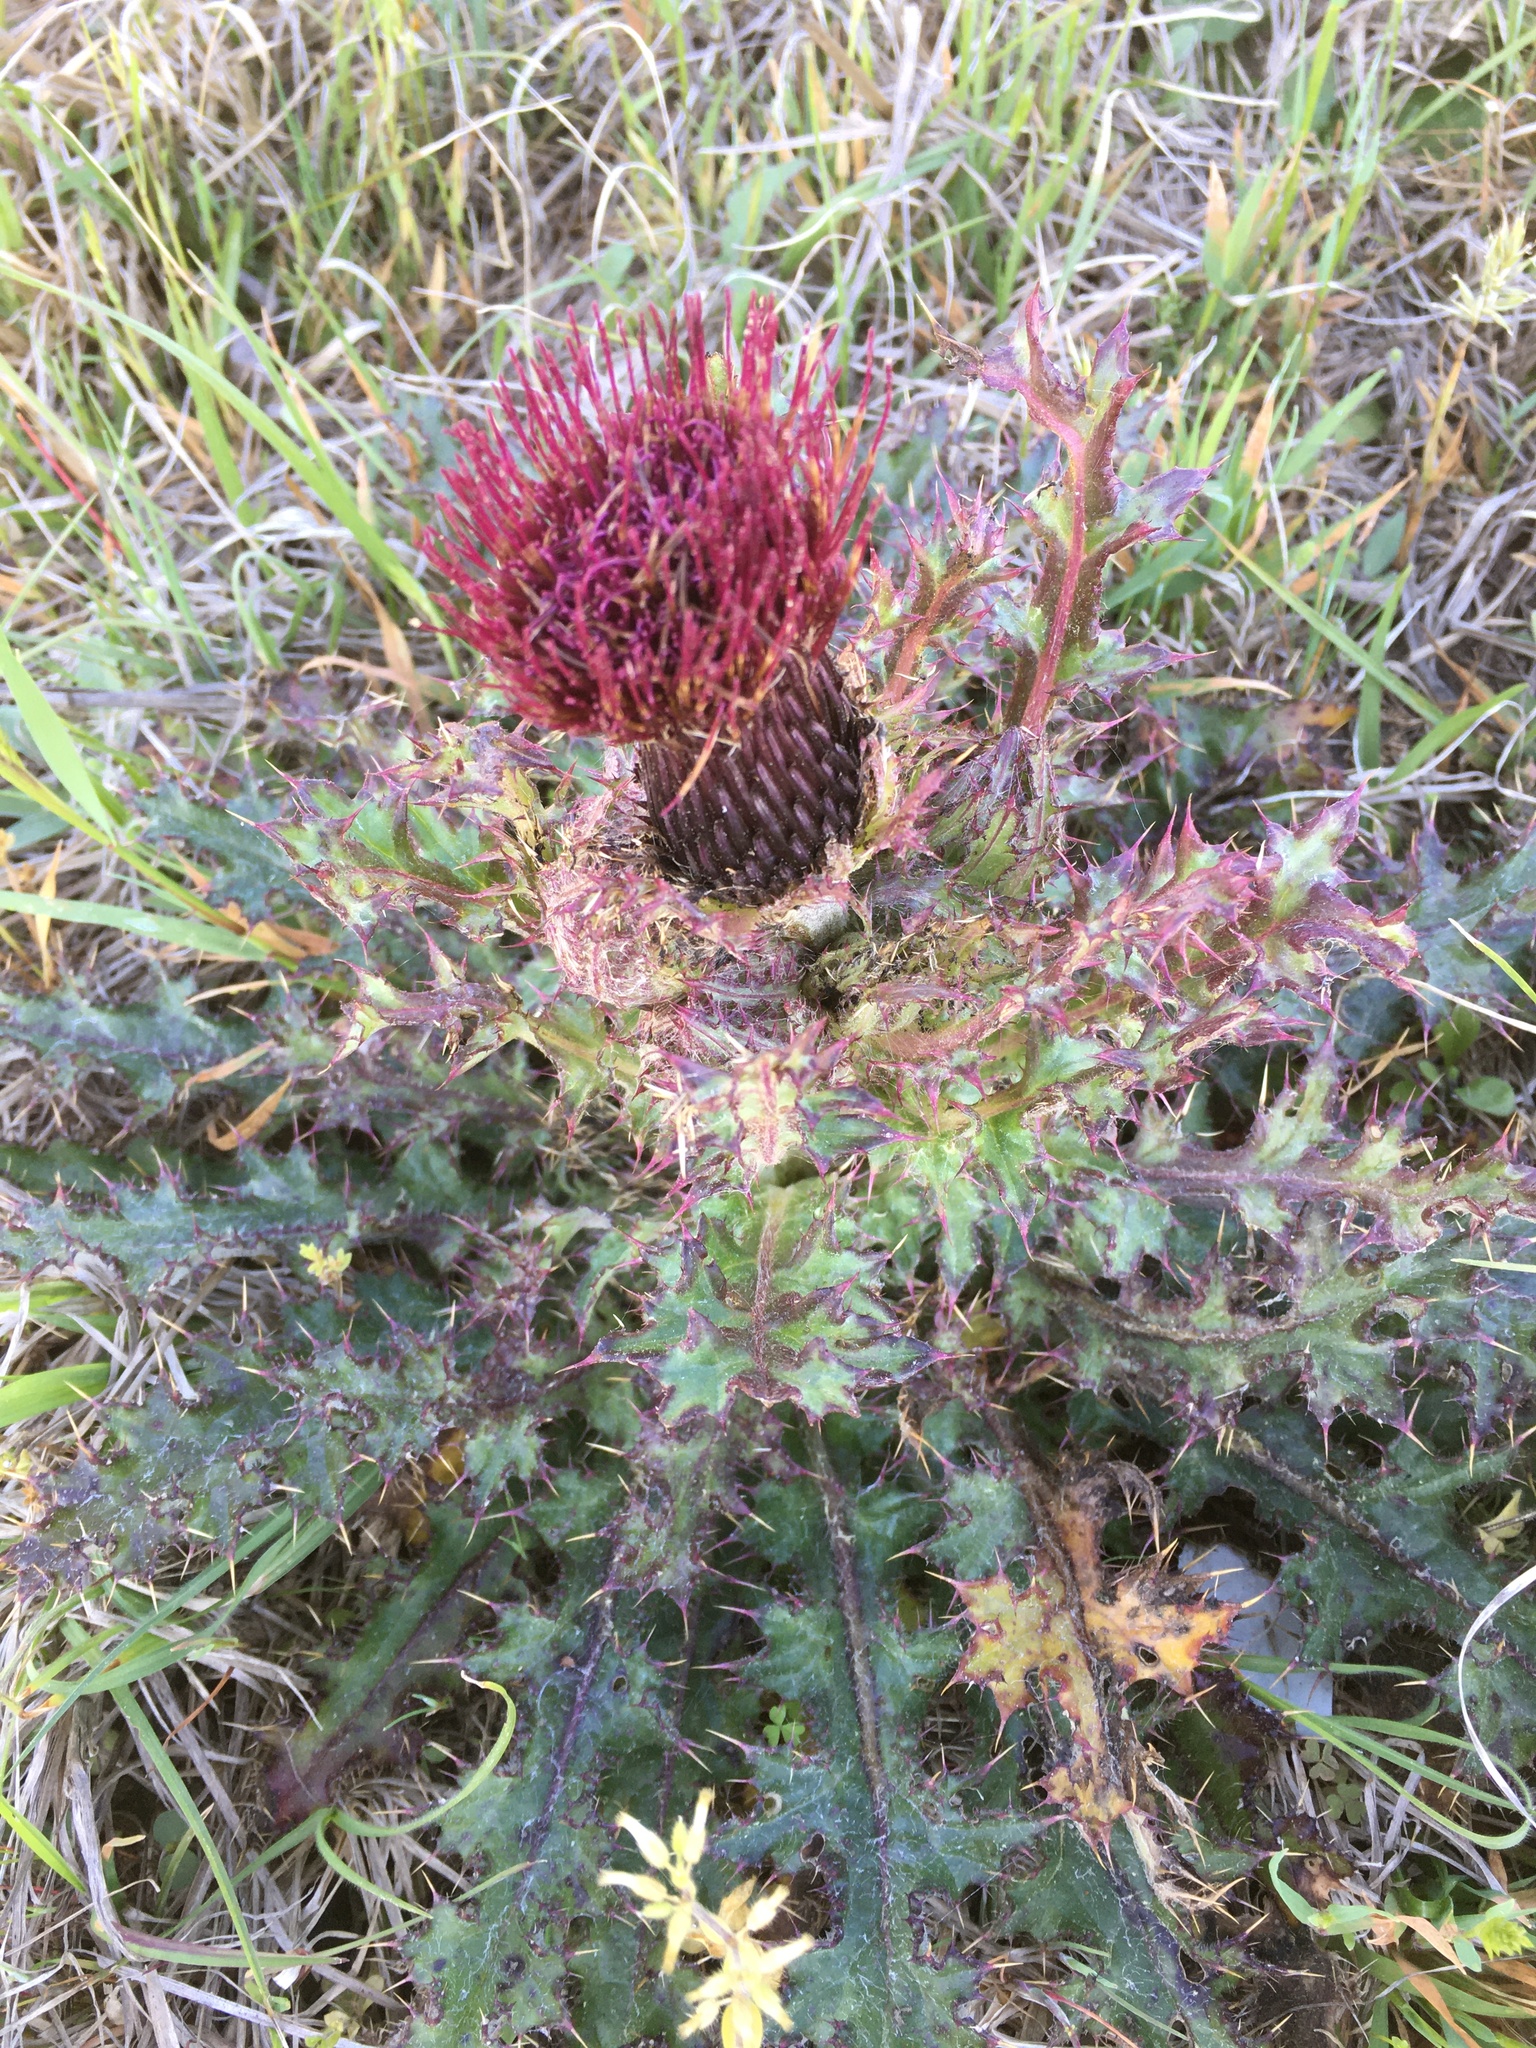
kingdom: Plantae
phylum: Tracheophyta
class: Magnoliopsida
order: Asterales
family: Asteraceae
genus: Cirsium
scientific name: Cirsium horridulum
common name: Bristly thistle
